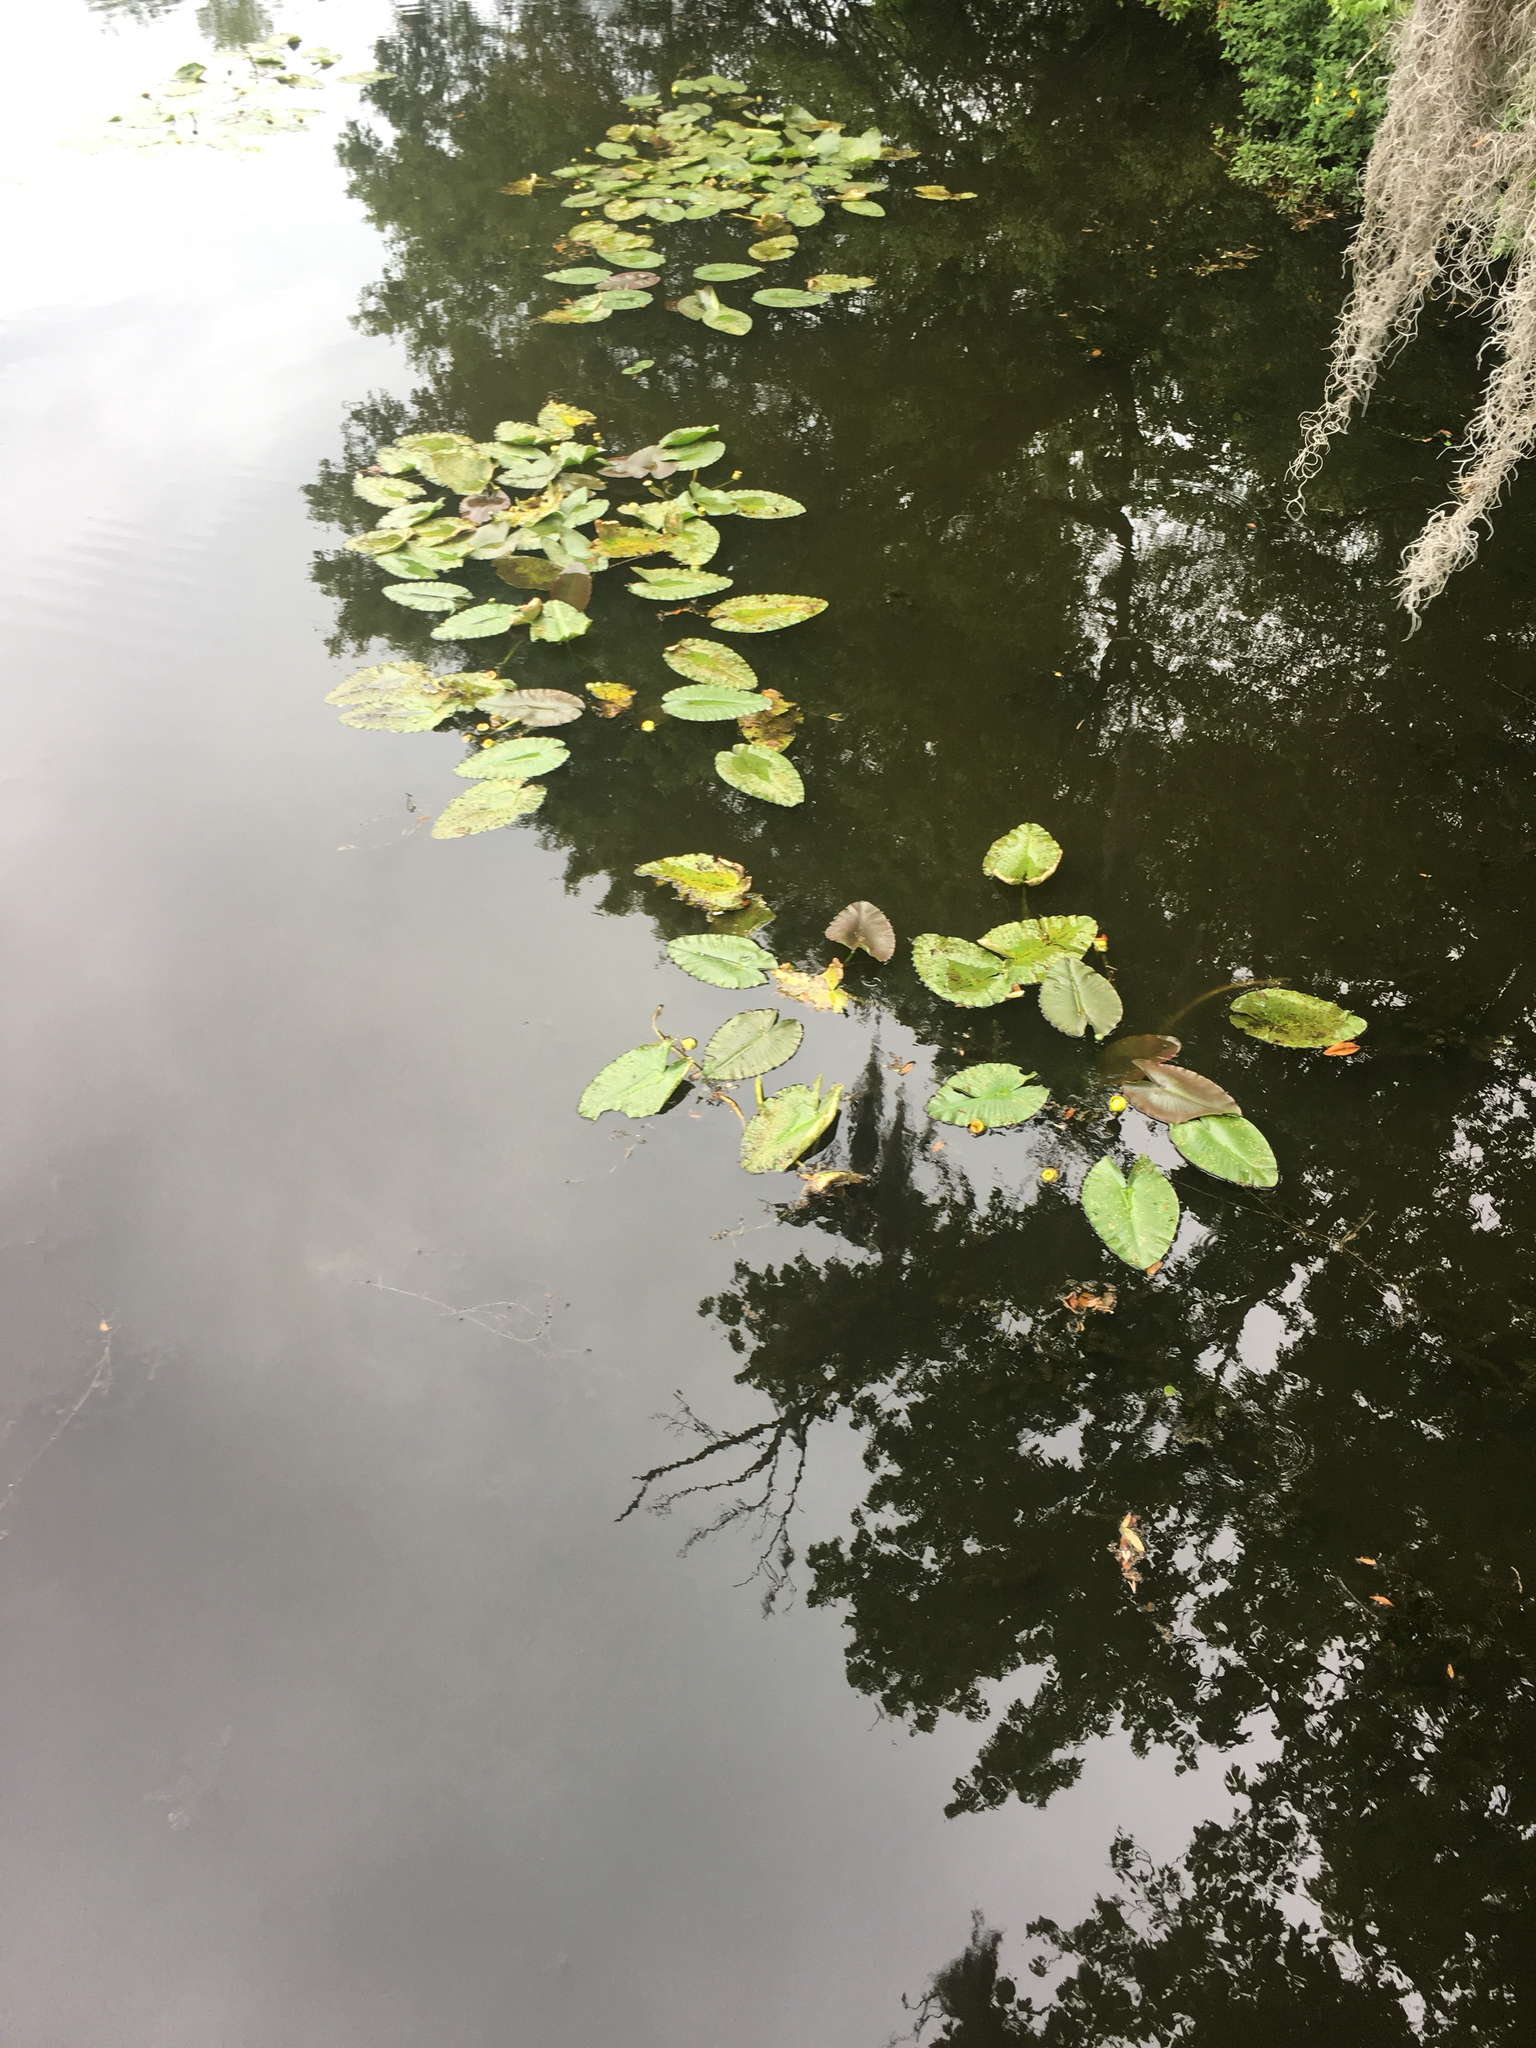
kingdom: Plantae
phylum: Tracheophyta
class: Magnoliopsida
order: Nymphaeales
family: Nymphaeaceae
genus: Nuphar
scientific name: Nuphar advena
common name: Spatter-dock
